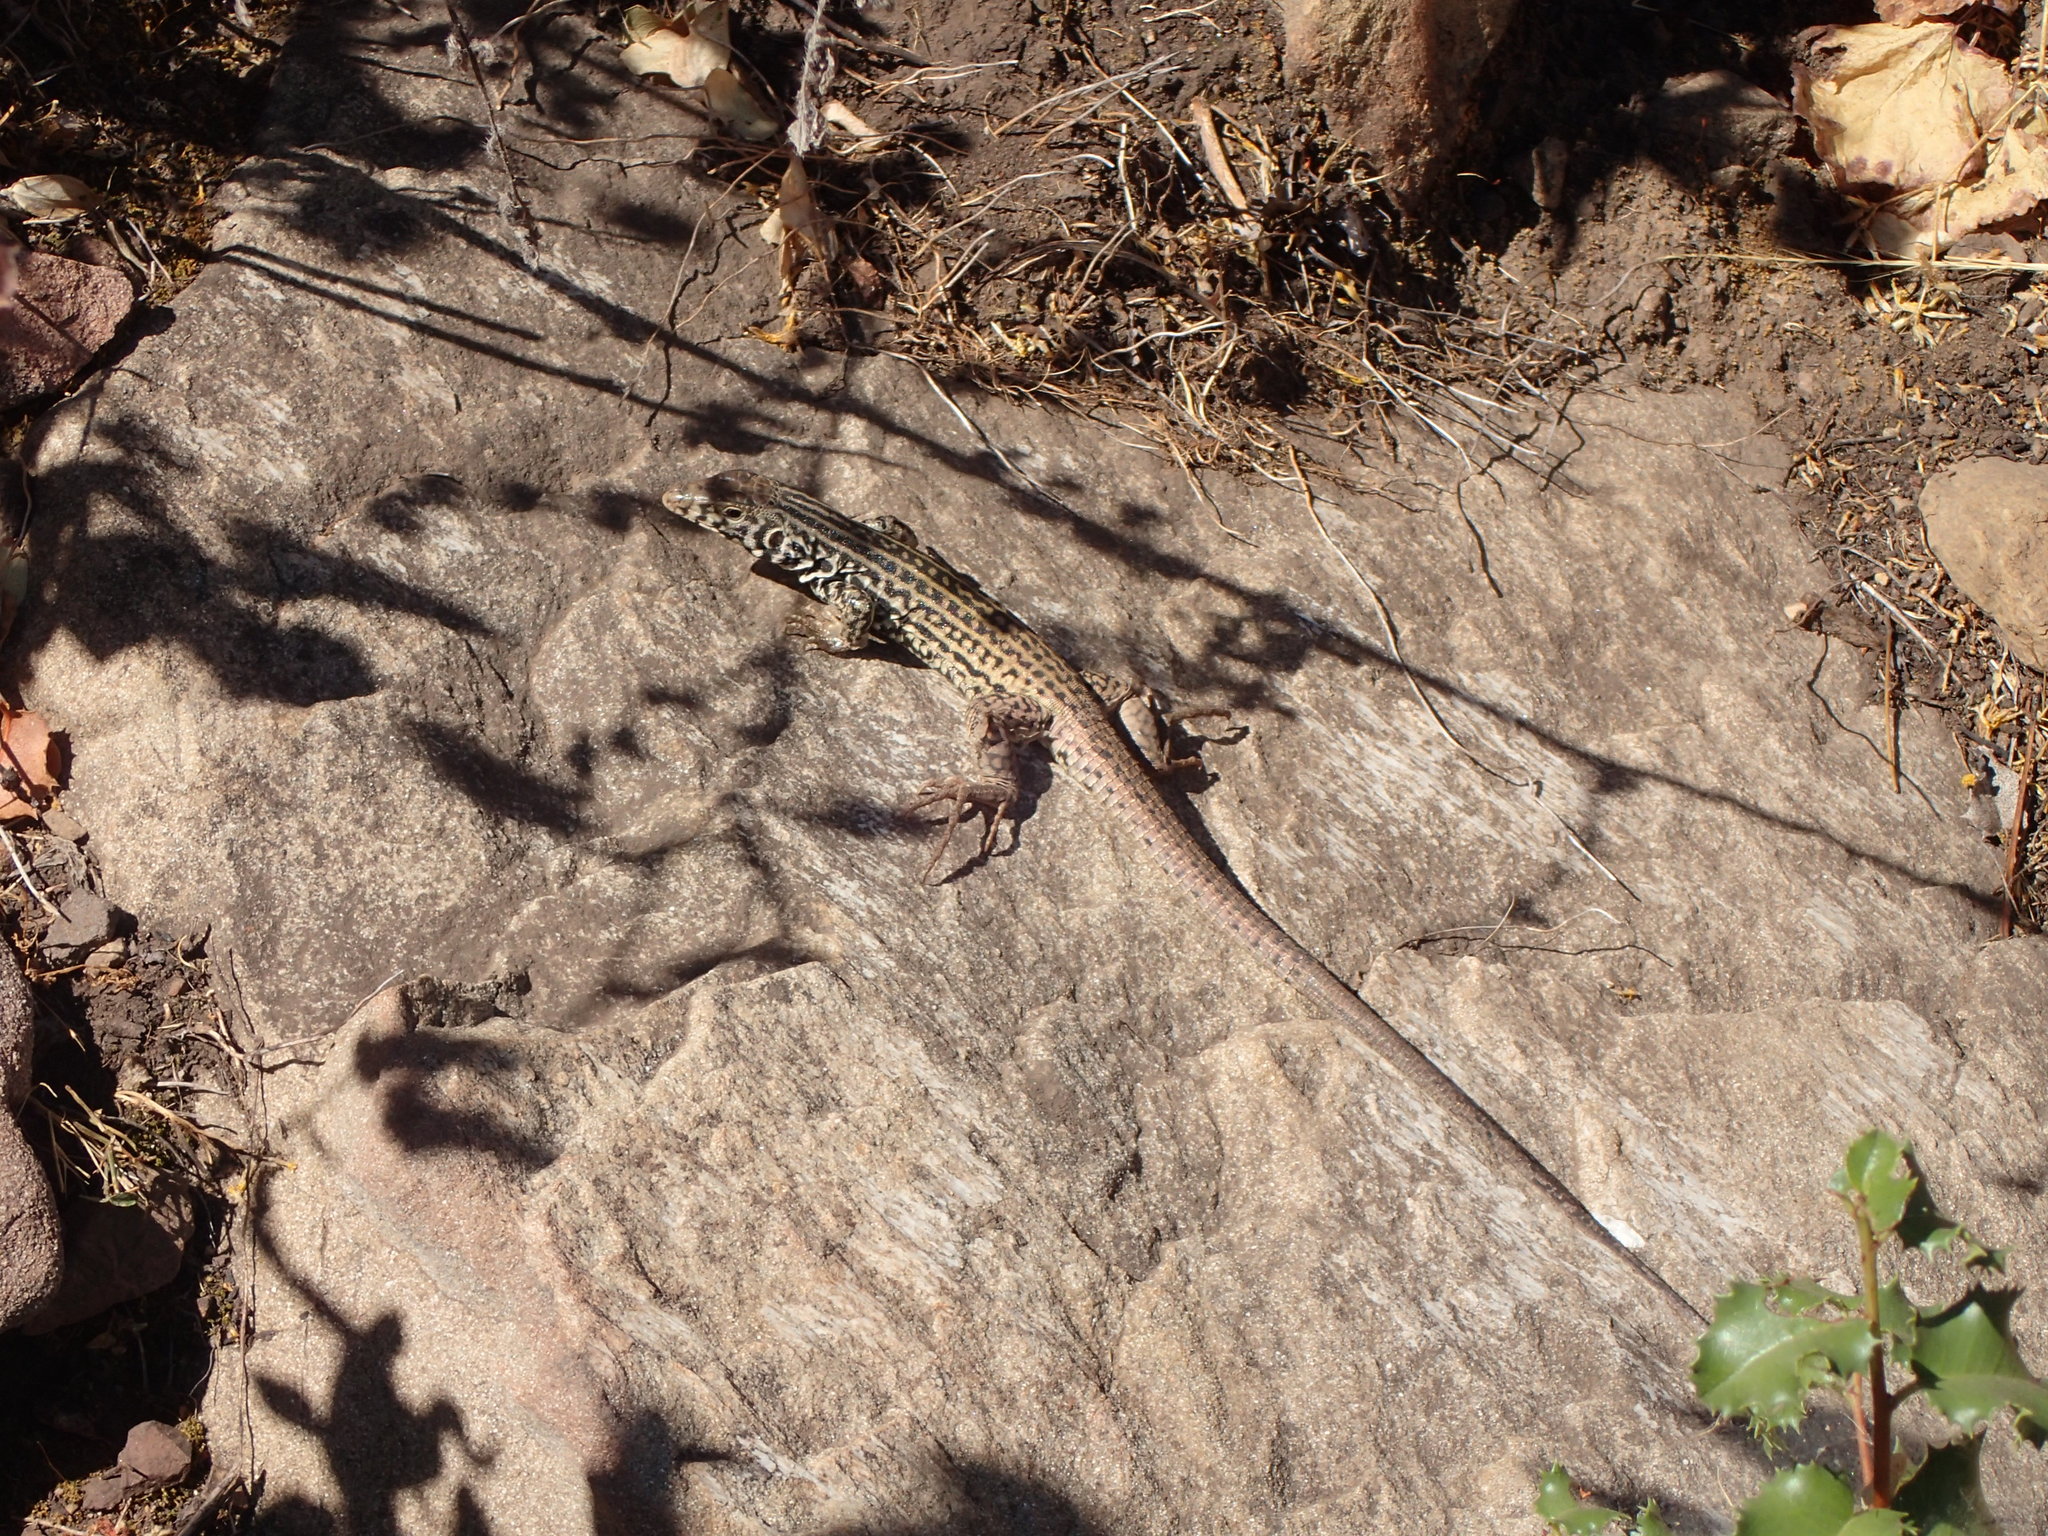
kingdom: Animalia
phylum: Chordata
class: Squamata
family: Teiidae
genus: Aspidoscelis
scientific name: Aspidoscelis tigris
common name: Tiger whiptail
